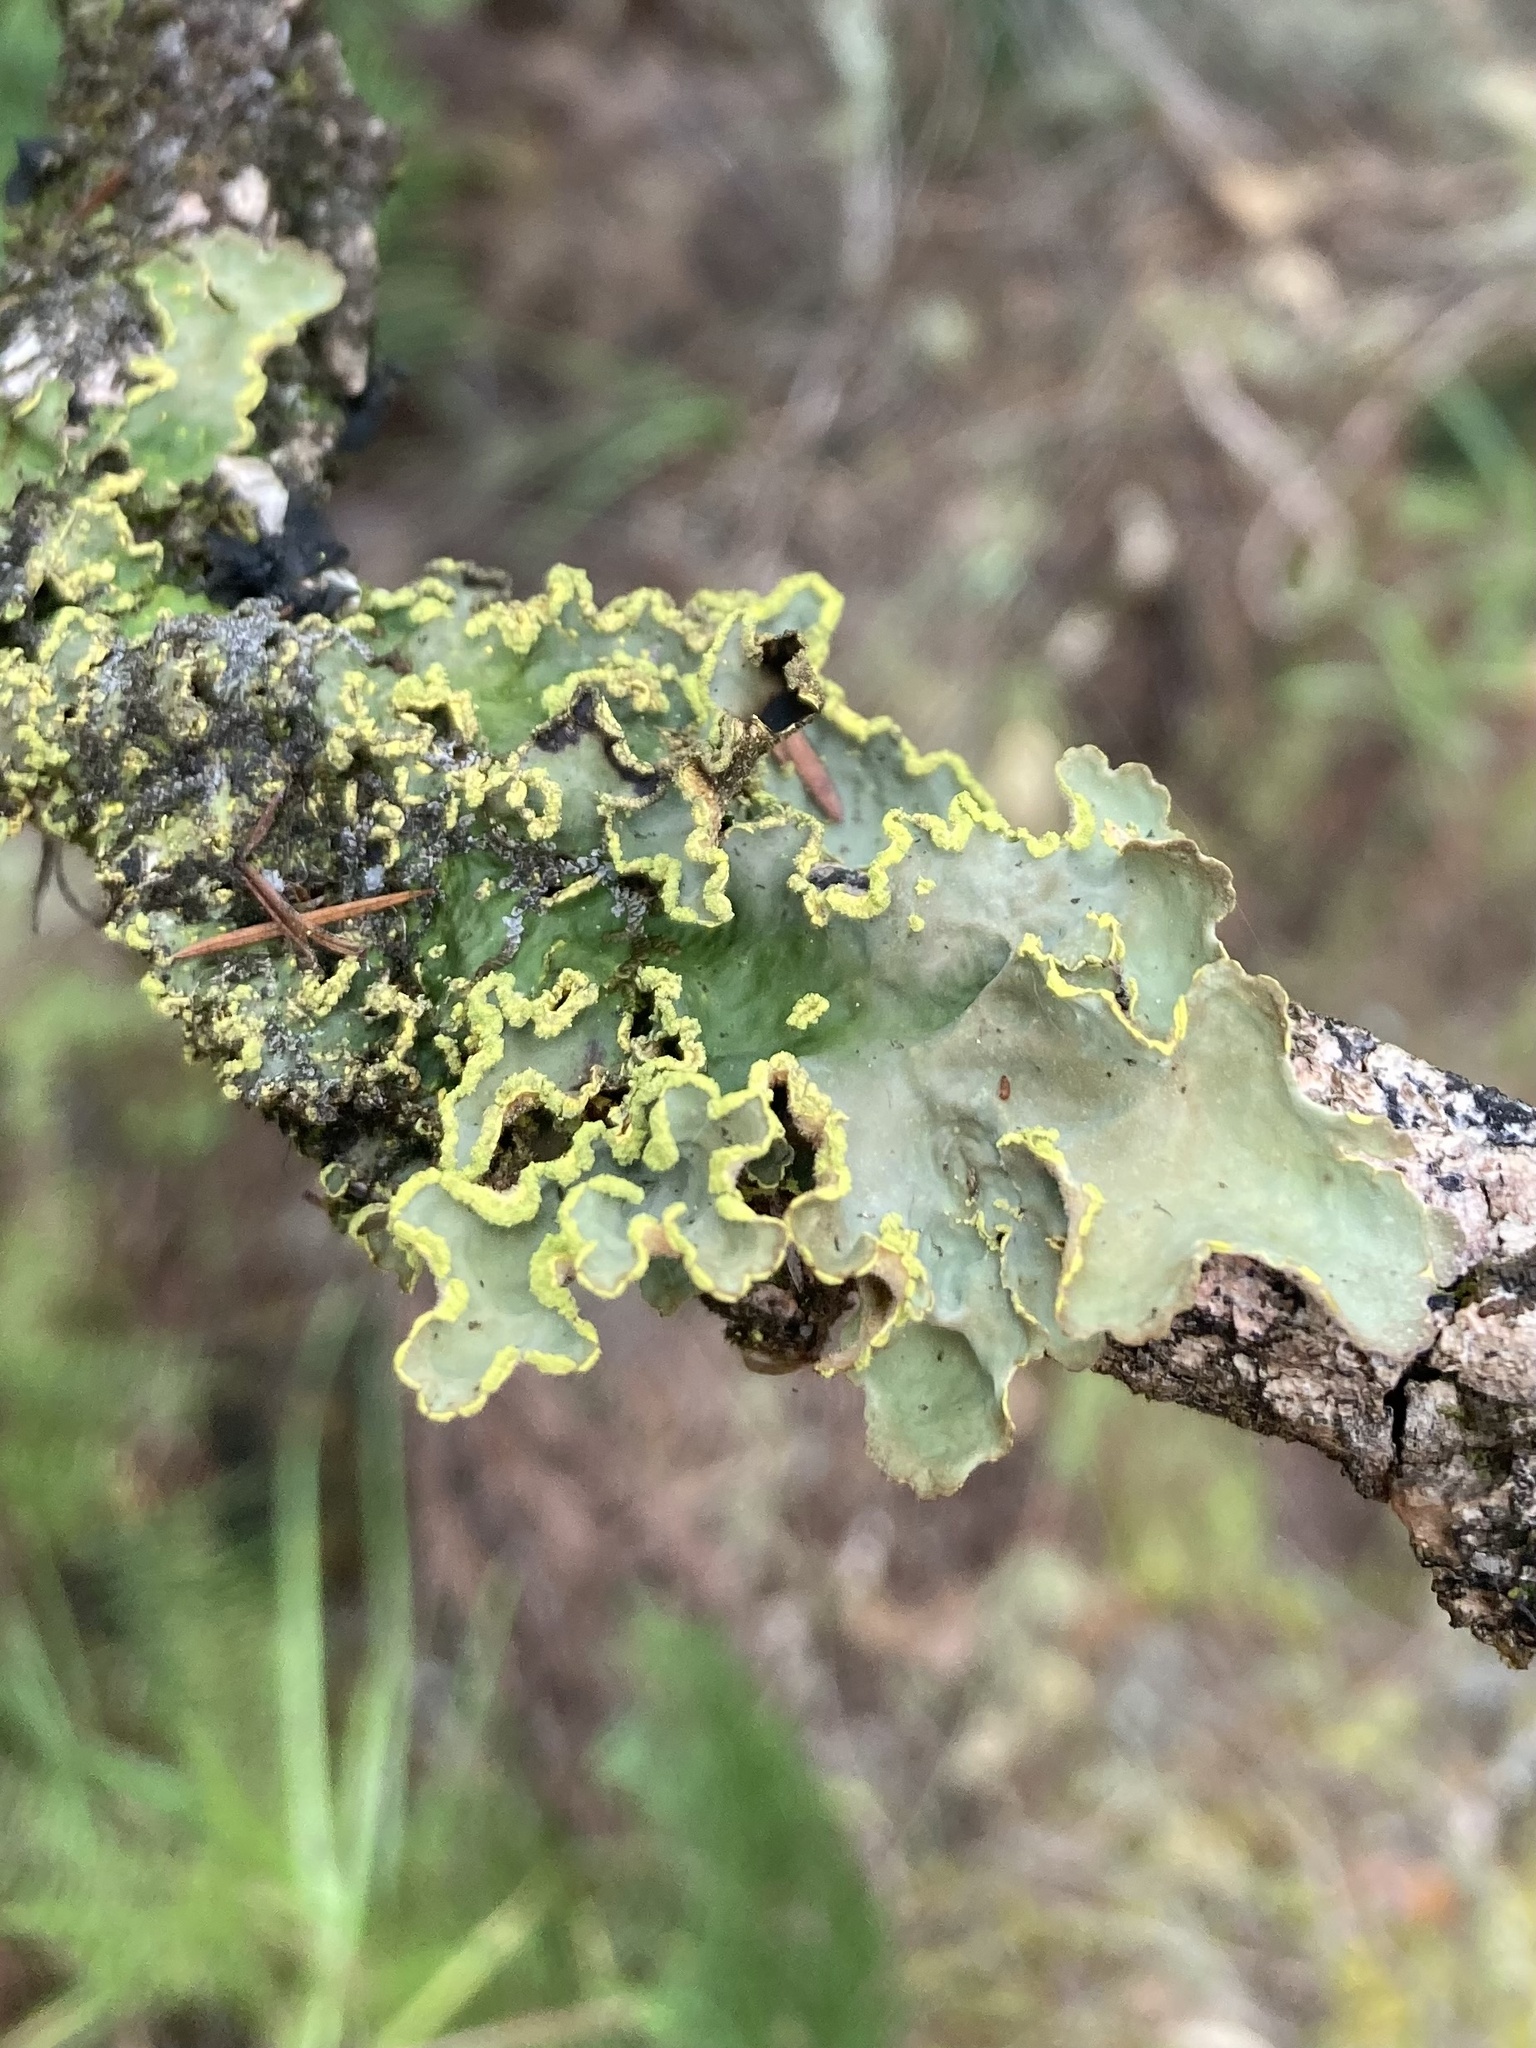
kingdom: Fungi
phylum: Ascomycota
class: Lecanoromycetes
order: Peltigerales
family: Lobariaceae
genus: Pseudocyphellaria
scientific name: Pseudocyphellaria aurata
